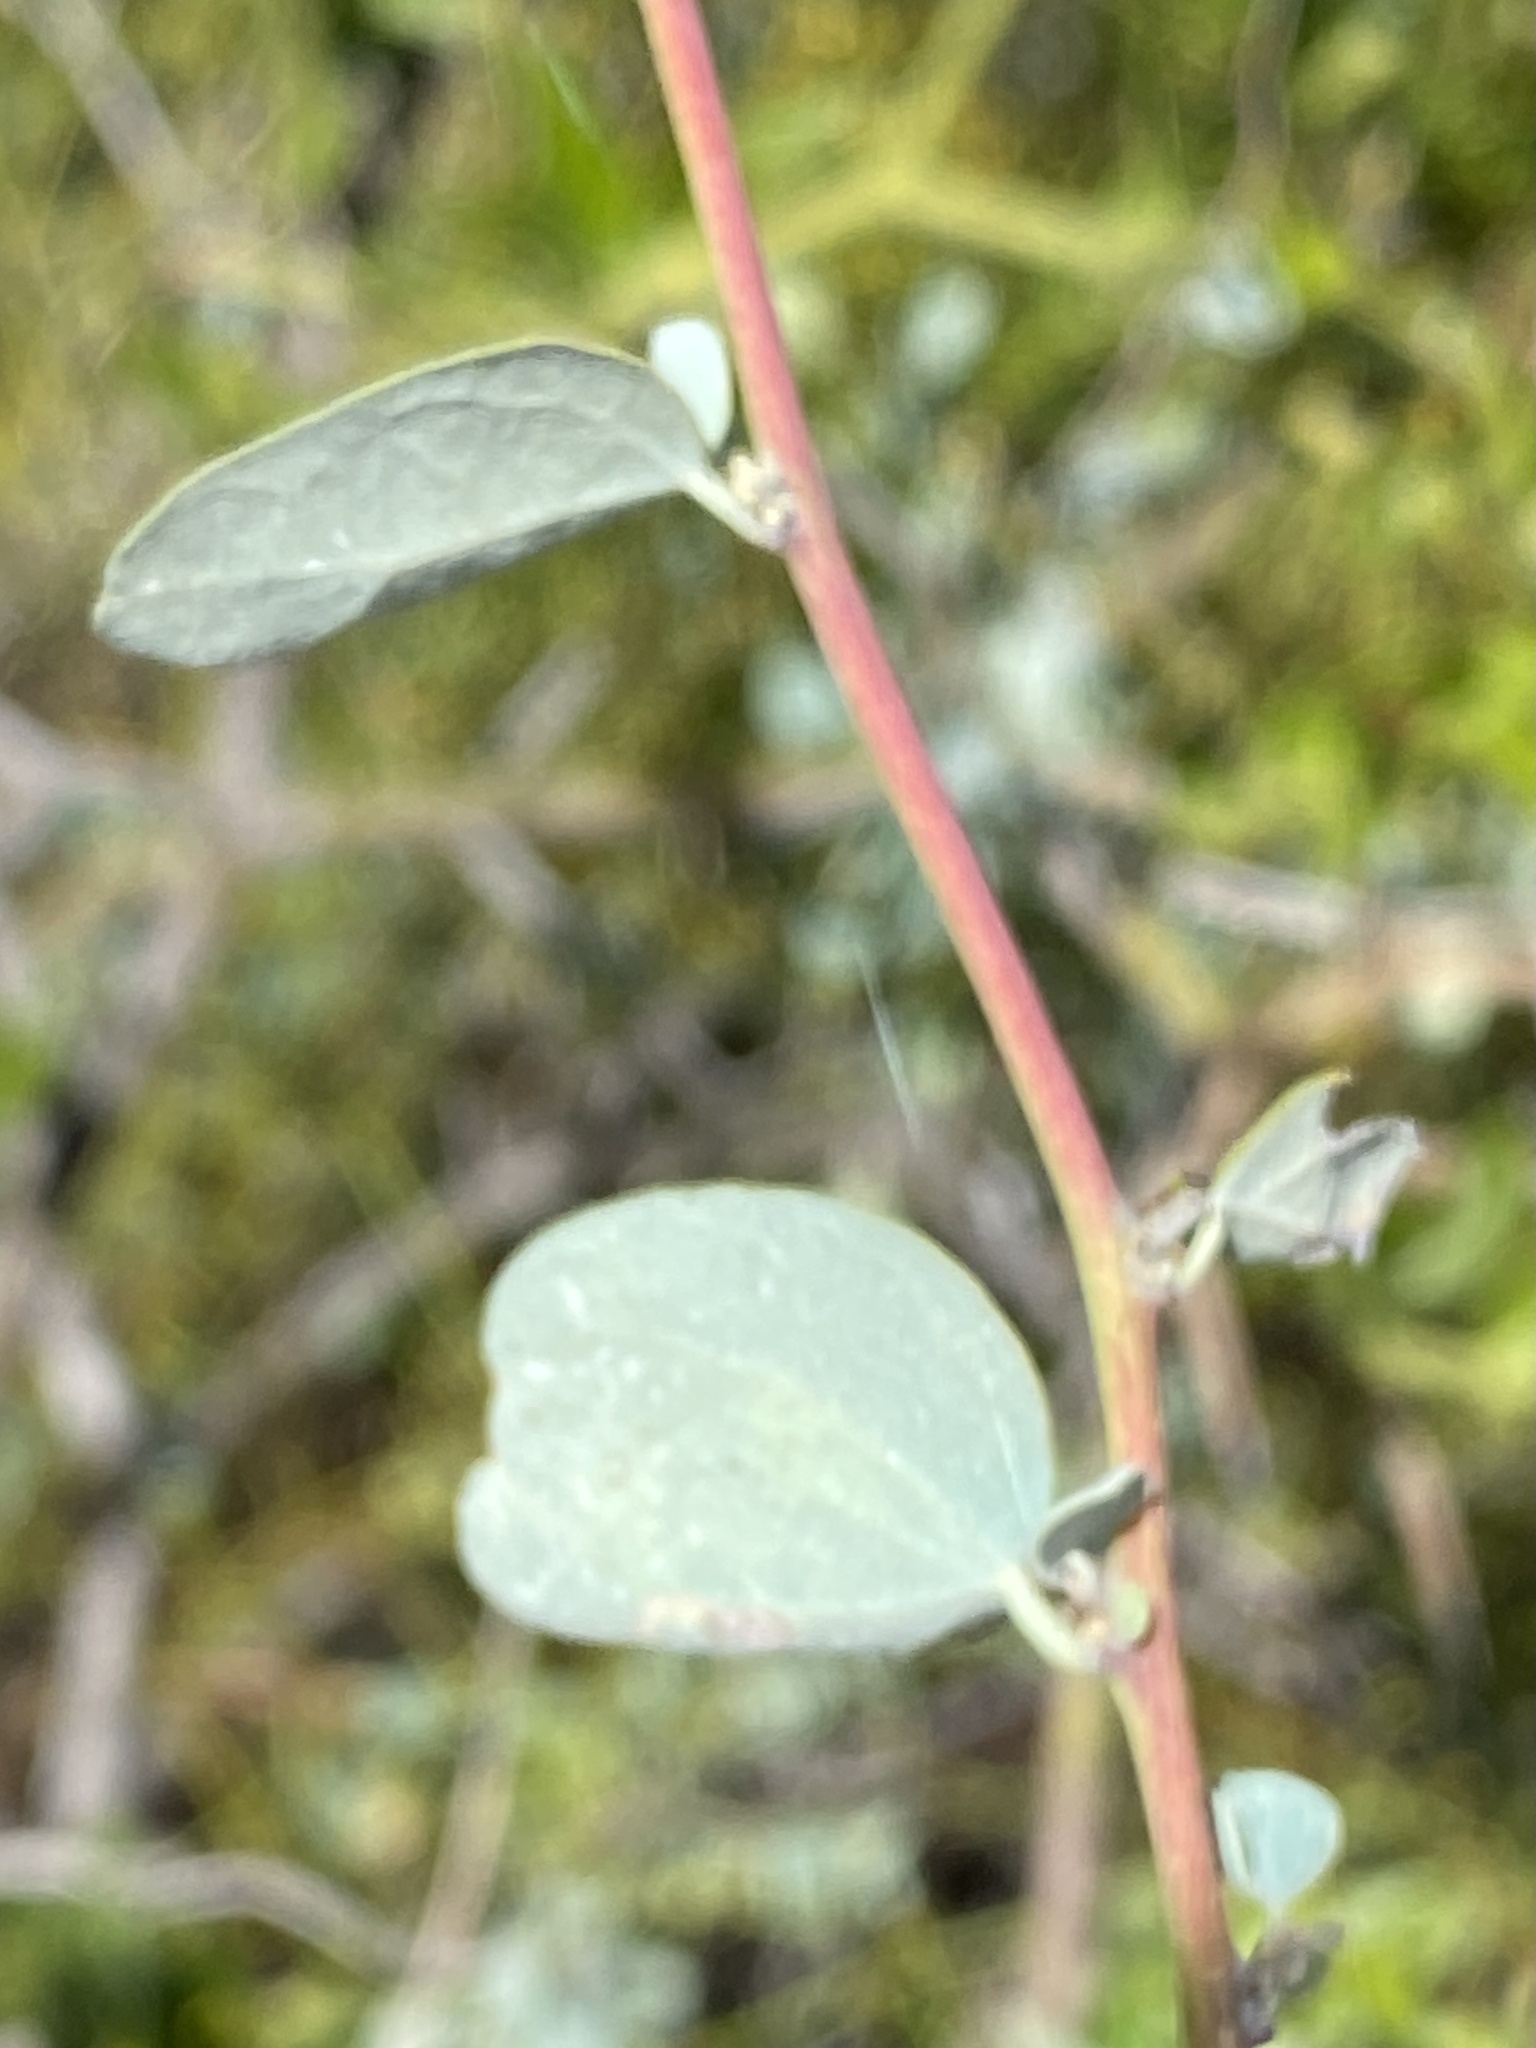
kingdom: Plantae
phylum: Tracheophyta
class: Magnoliopsida
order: Ranunculales
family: Menispermaceae
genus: Cissampelos
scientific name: Cissampelos capensis
